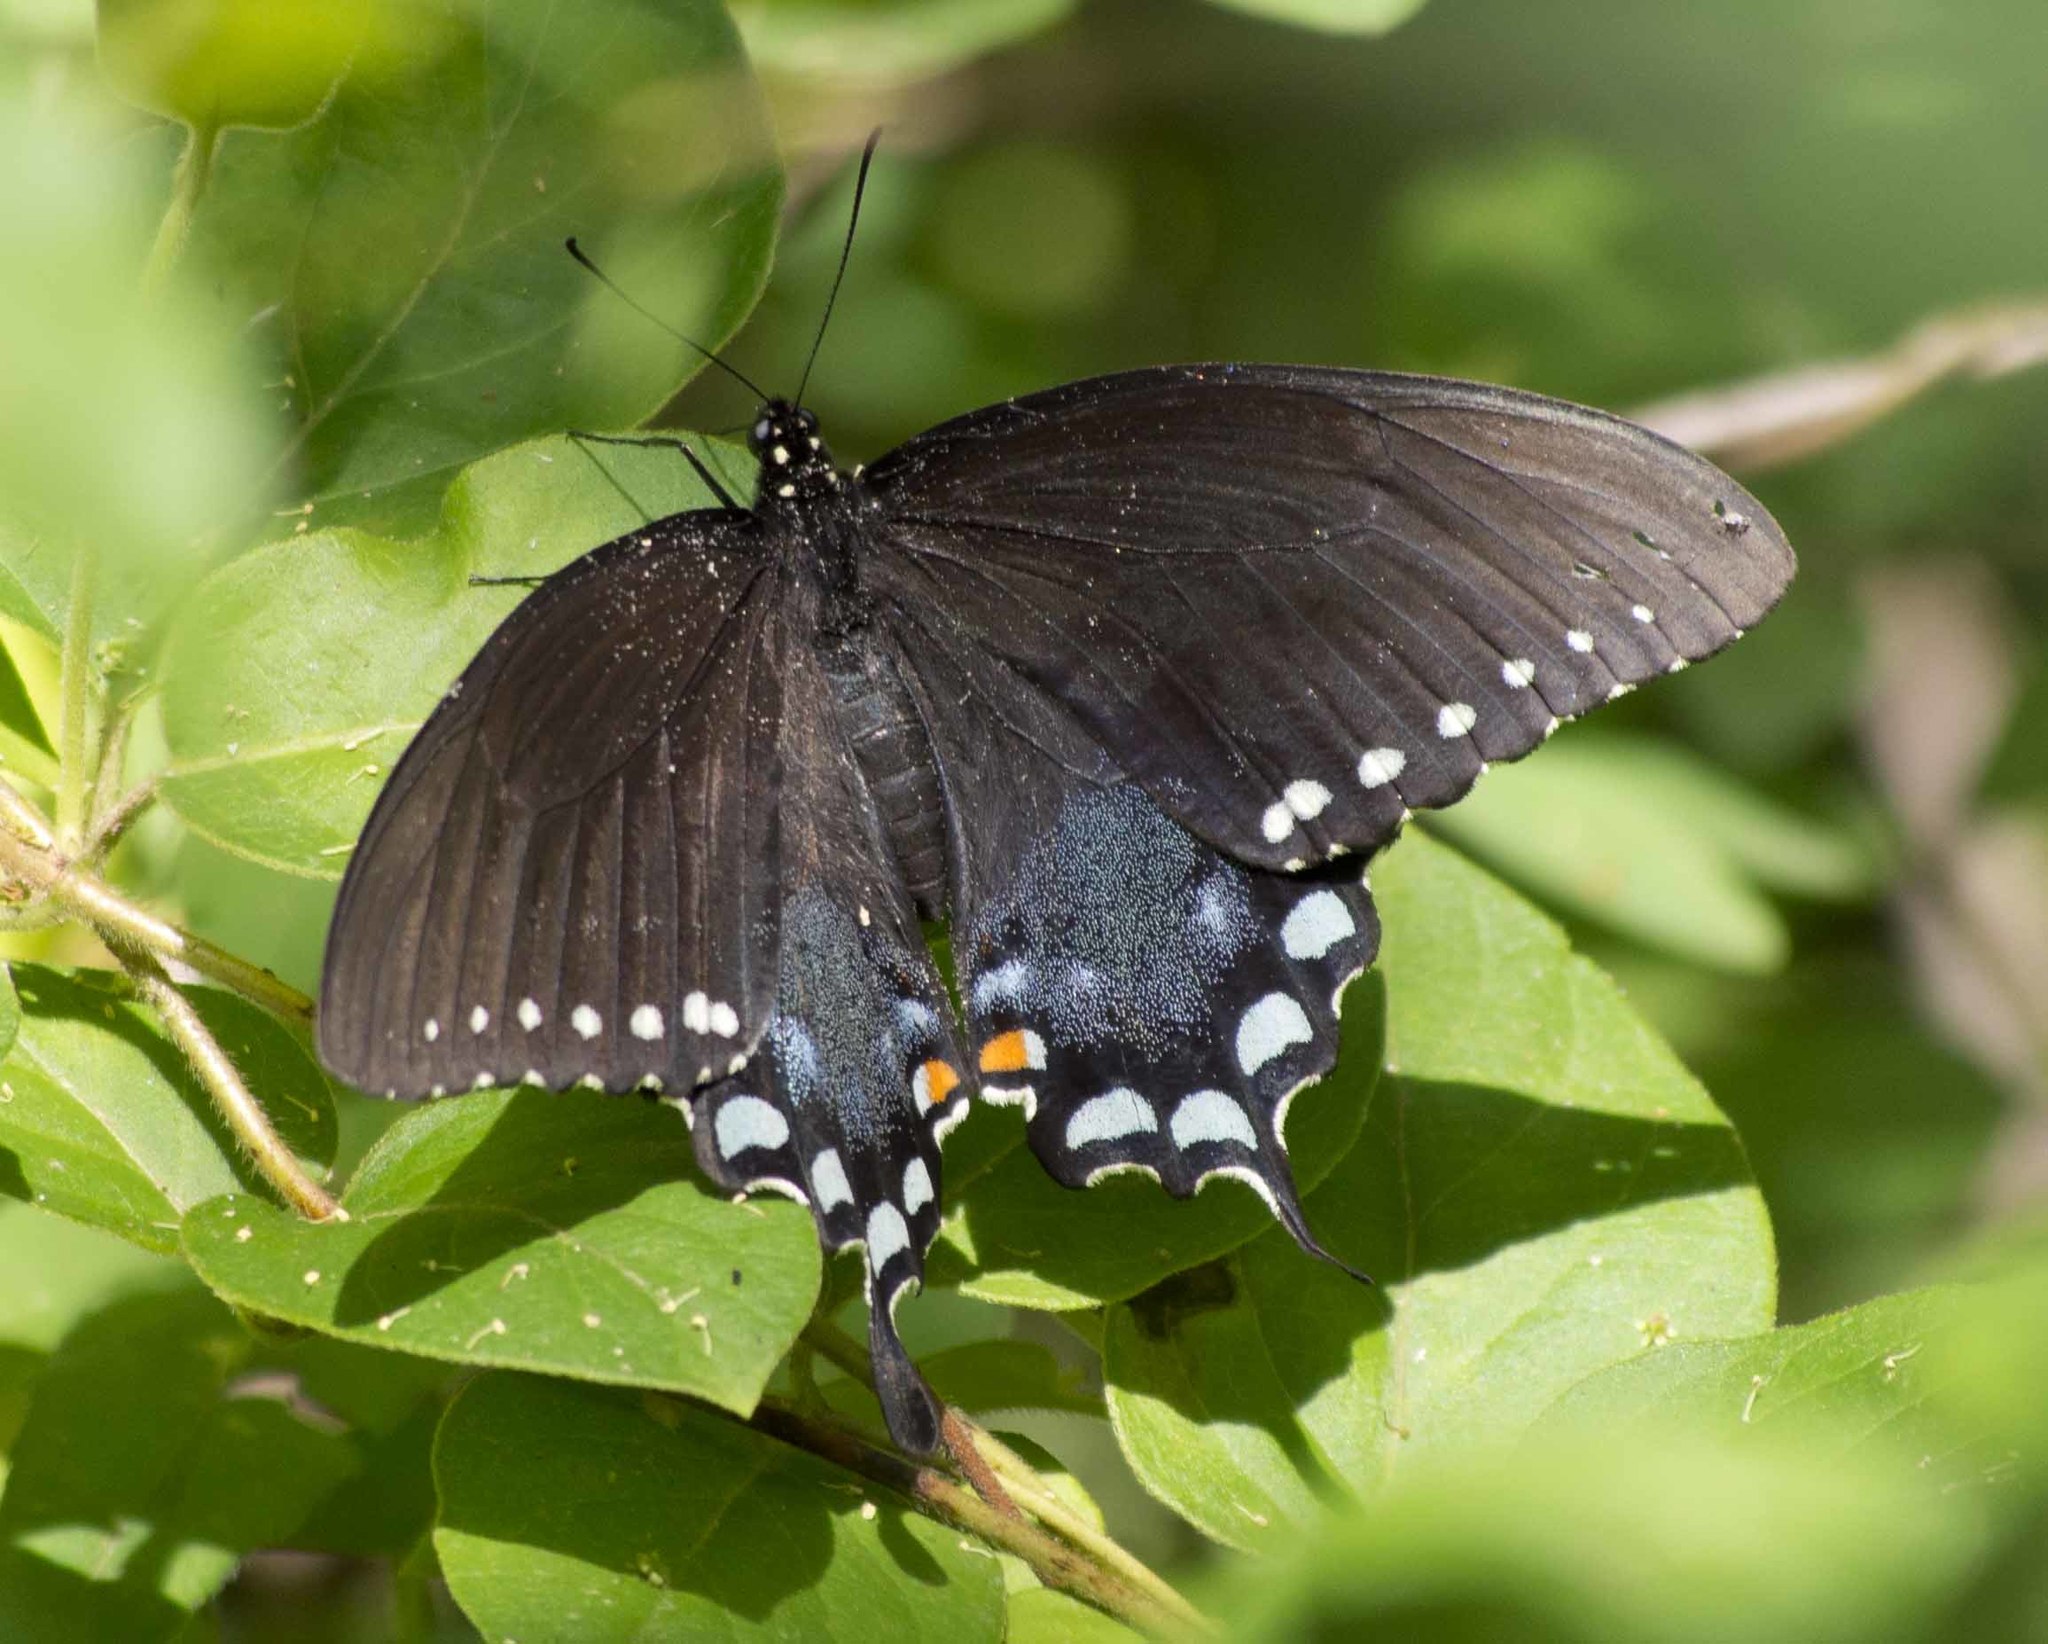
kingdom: Animalia
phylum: Arthropoda
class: Insecta
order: Lepidoptera
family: Papilionidae
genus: Papilio
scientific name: Papilio troilus
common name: Spicebush swallowtail
